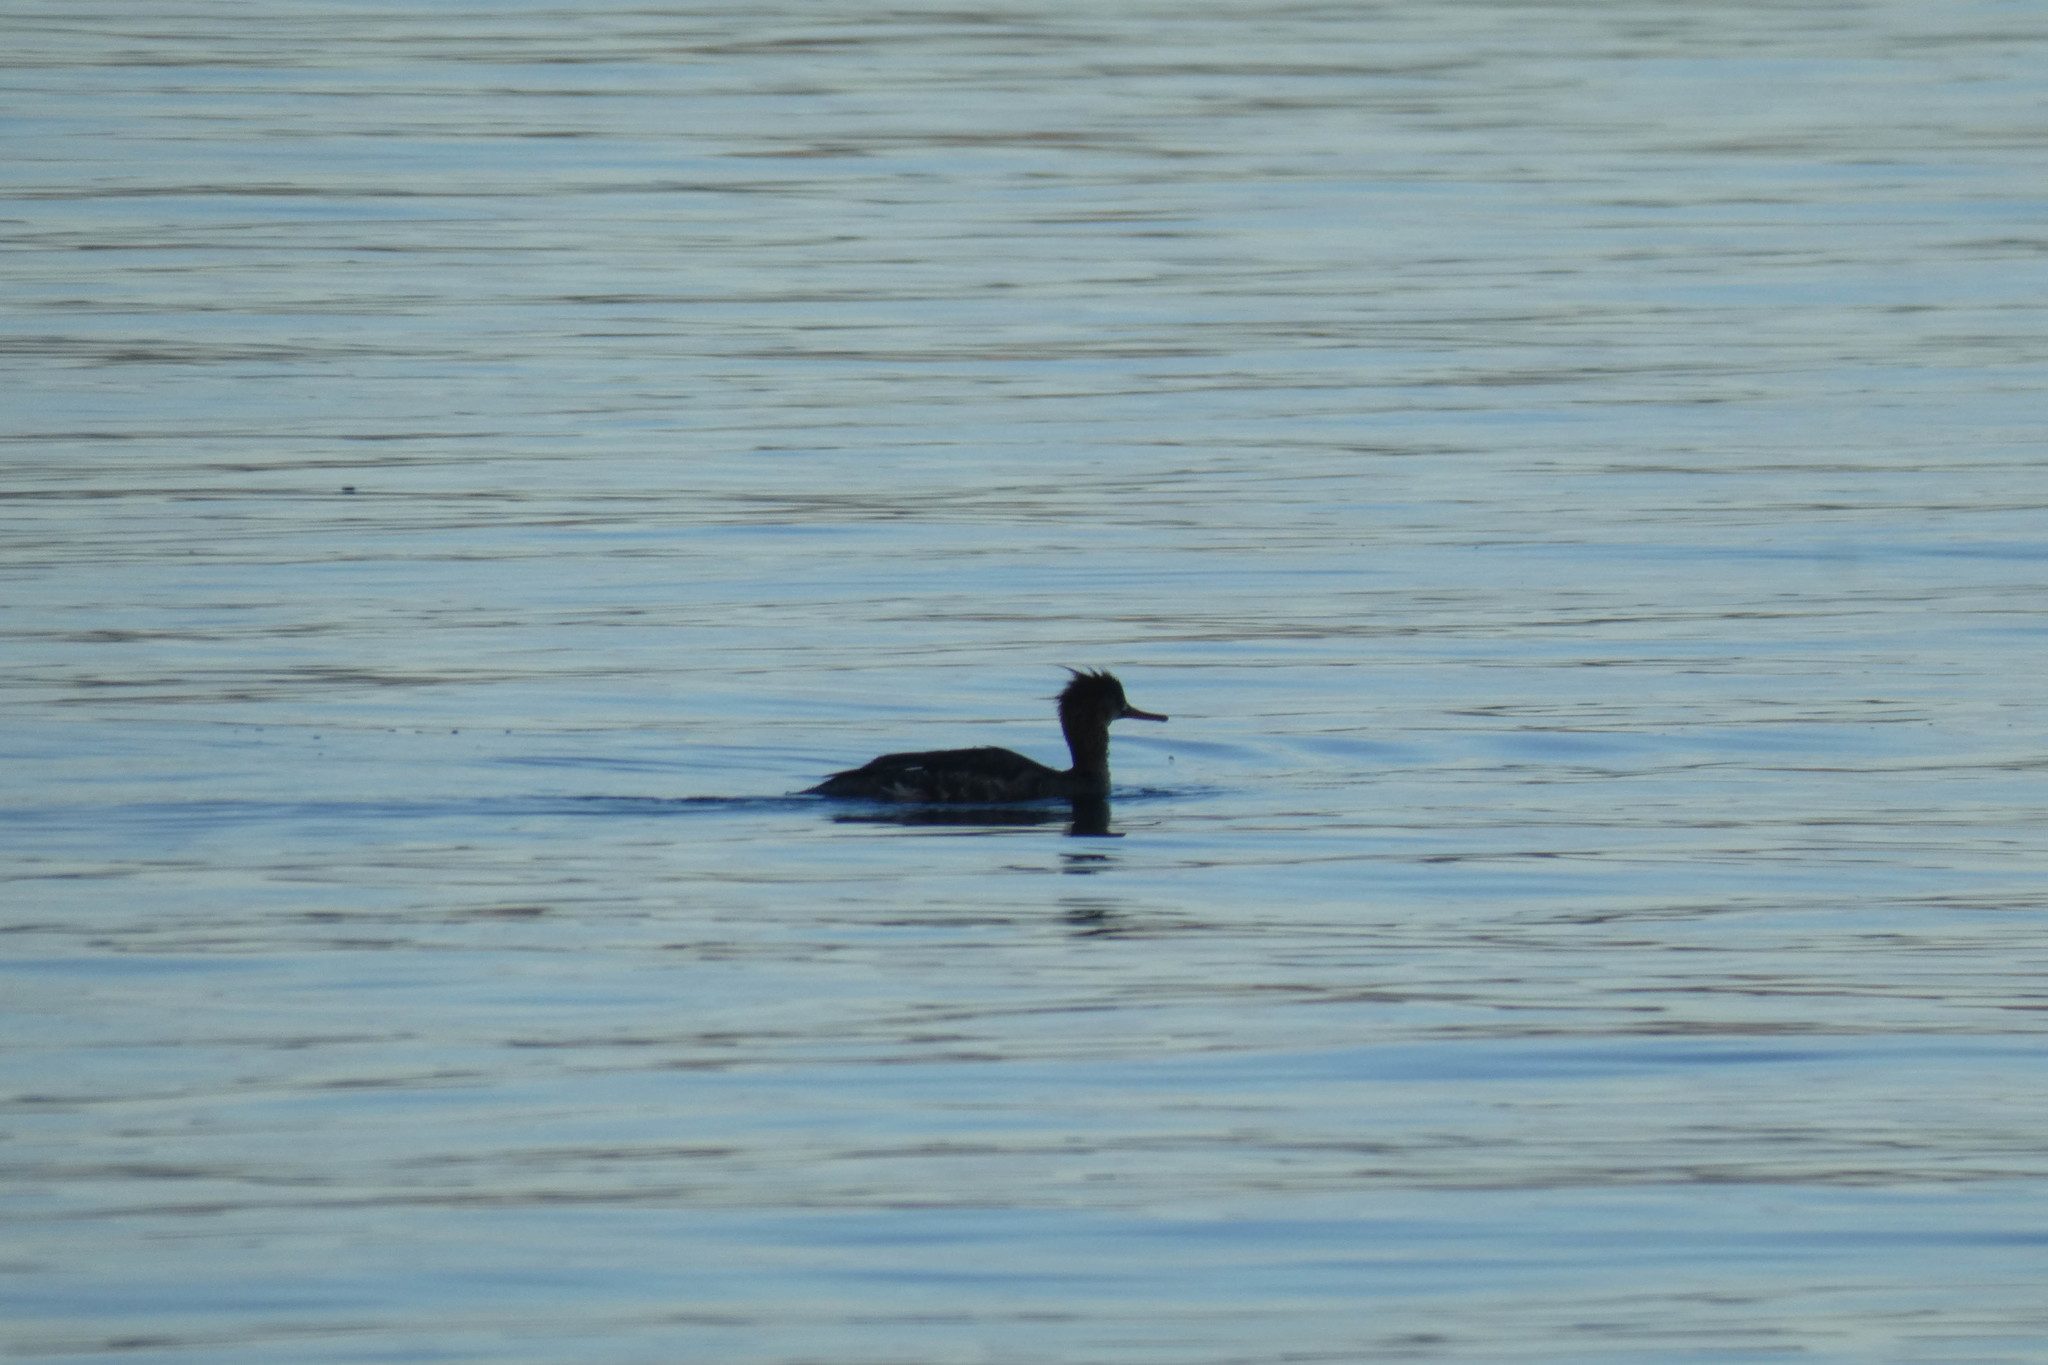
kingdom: Animalia
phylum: Chordata
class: Aves
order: Anseriformes
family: Anatidae
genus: Mergus
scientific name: Mergus serrator
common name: Red-breasted merganser
